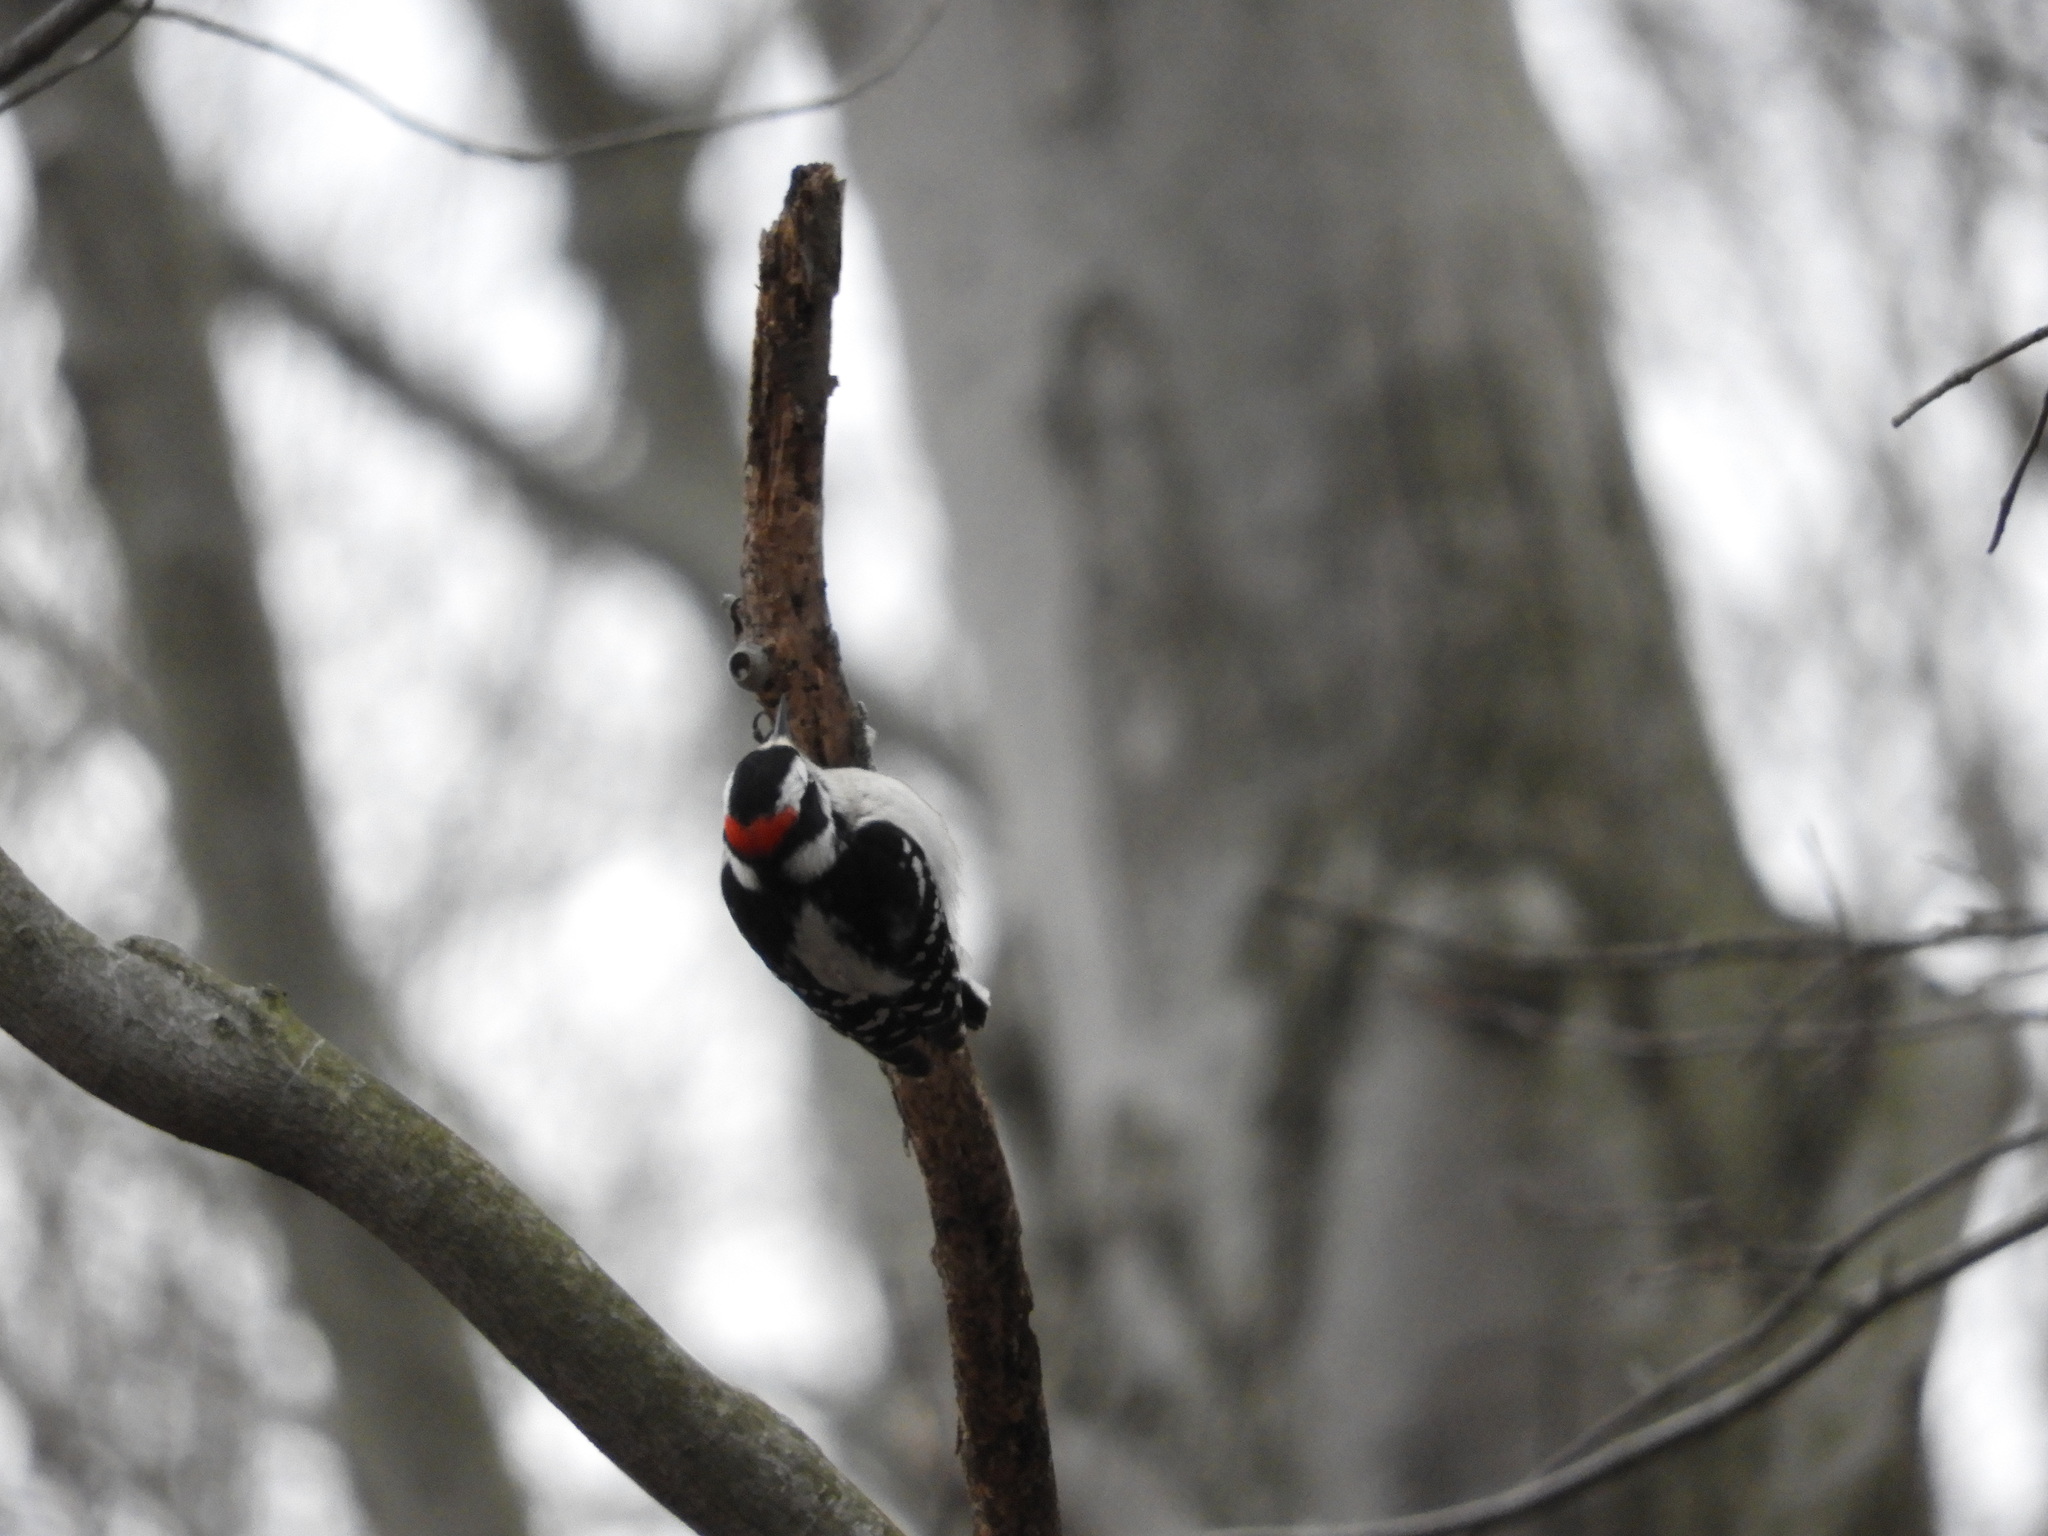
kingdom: Animalia
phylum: Chordata
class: Aves
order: Piciformes
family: Picidae
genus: Dryobates
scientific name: Dryobates pubescens
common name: Downy woodpecker
